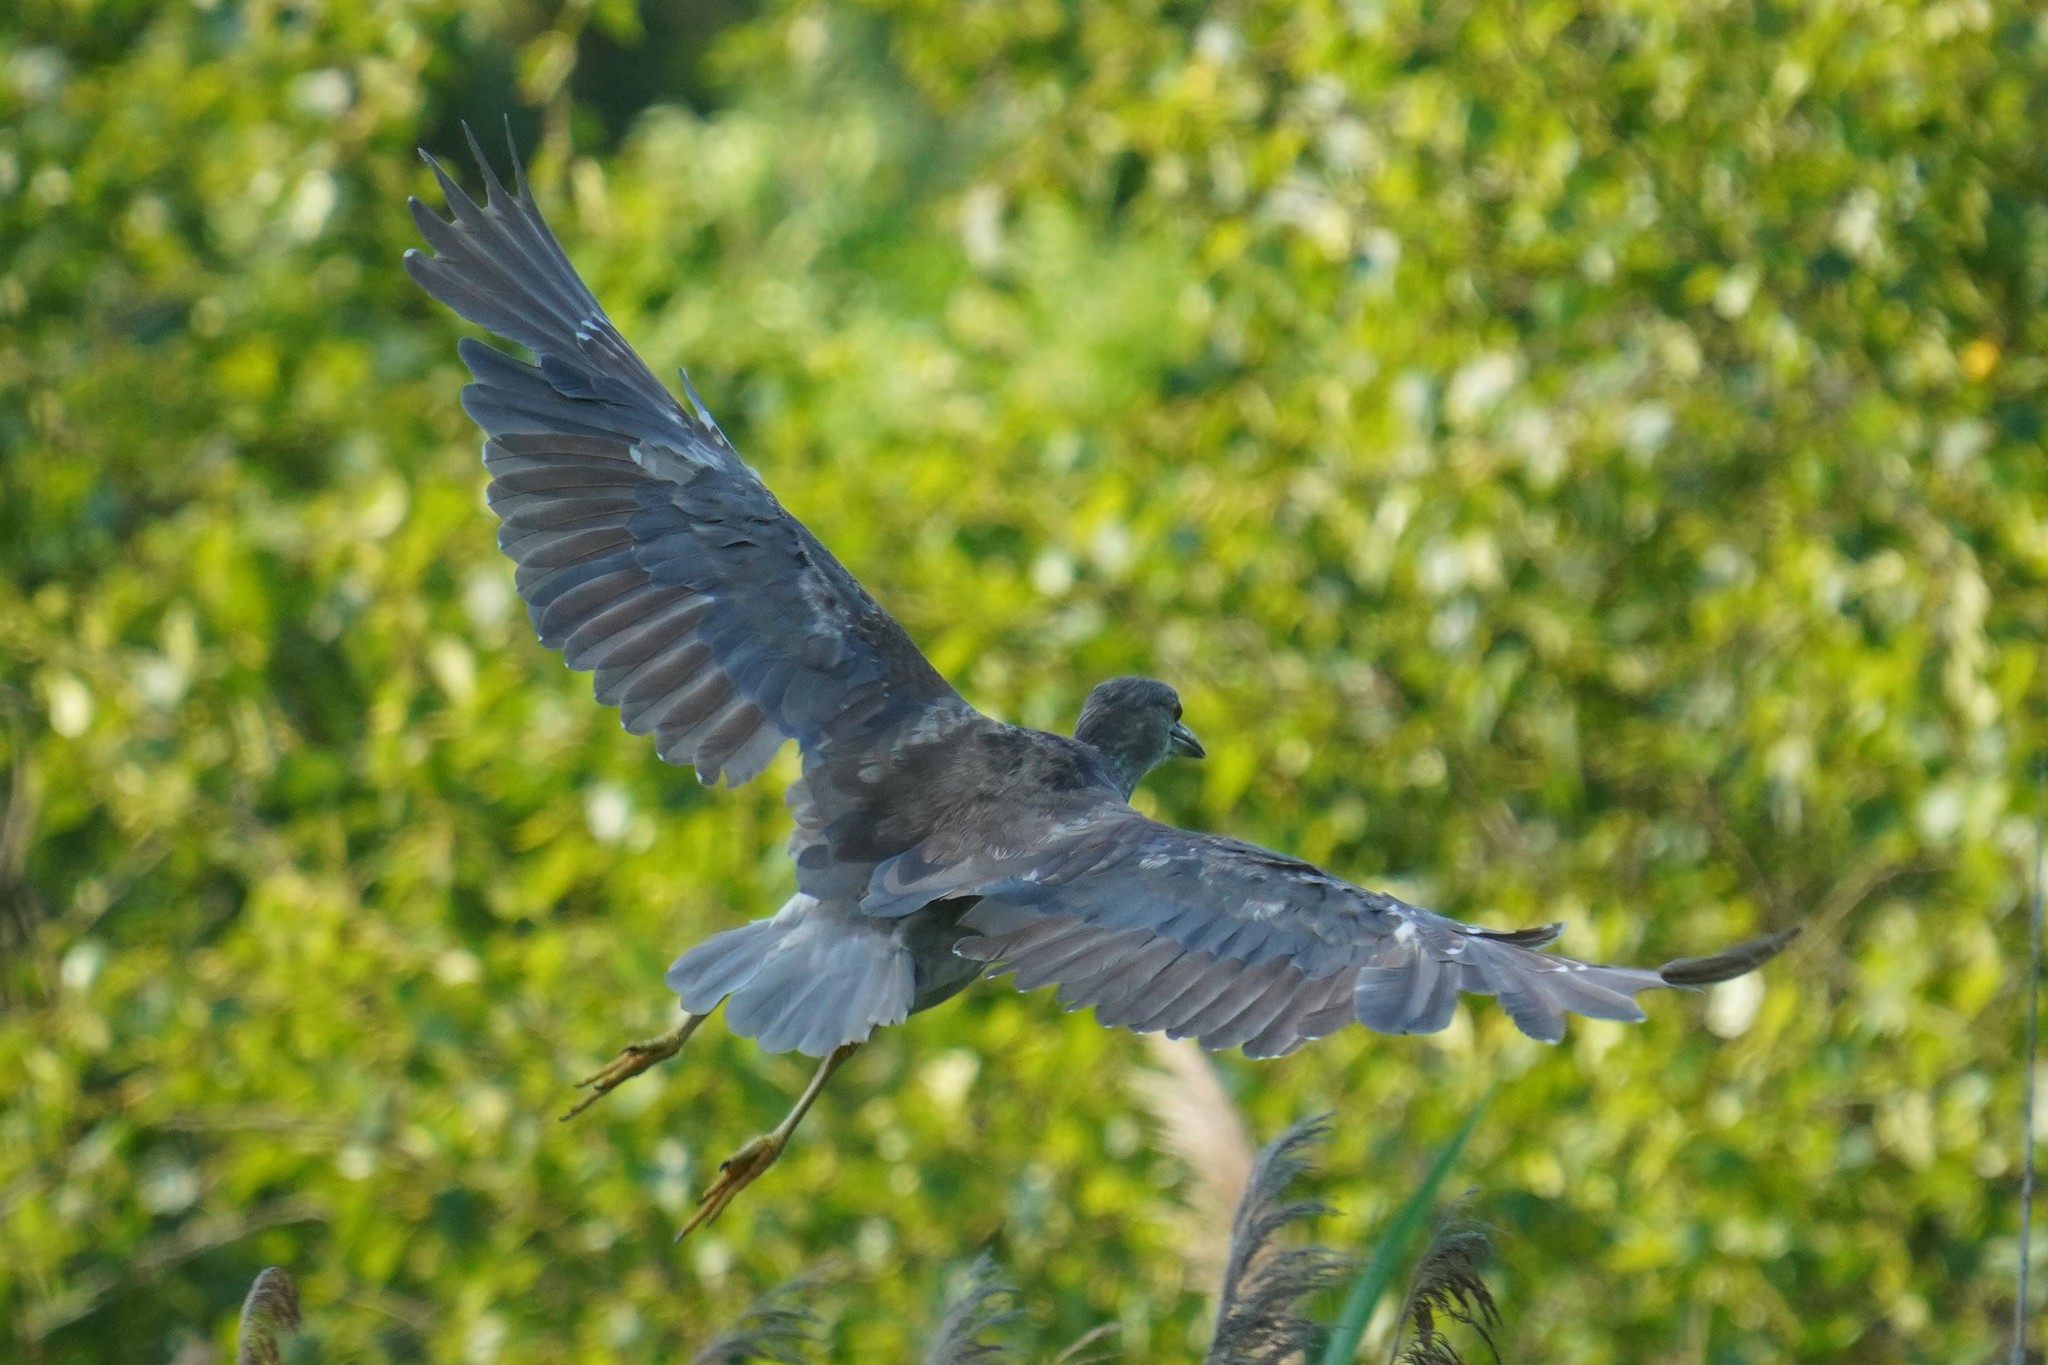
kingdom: Animalia
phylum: Chordata
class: Aves
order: Pelecaniformes
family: Ardeidae
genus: Nycticorax
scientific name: Nycticorax nycticorax
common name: Black-crowned night heron
